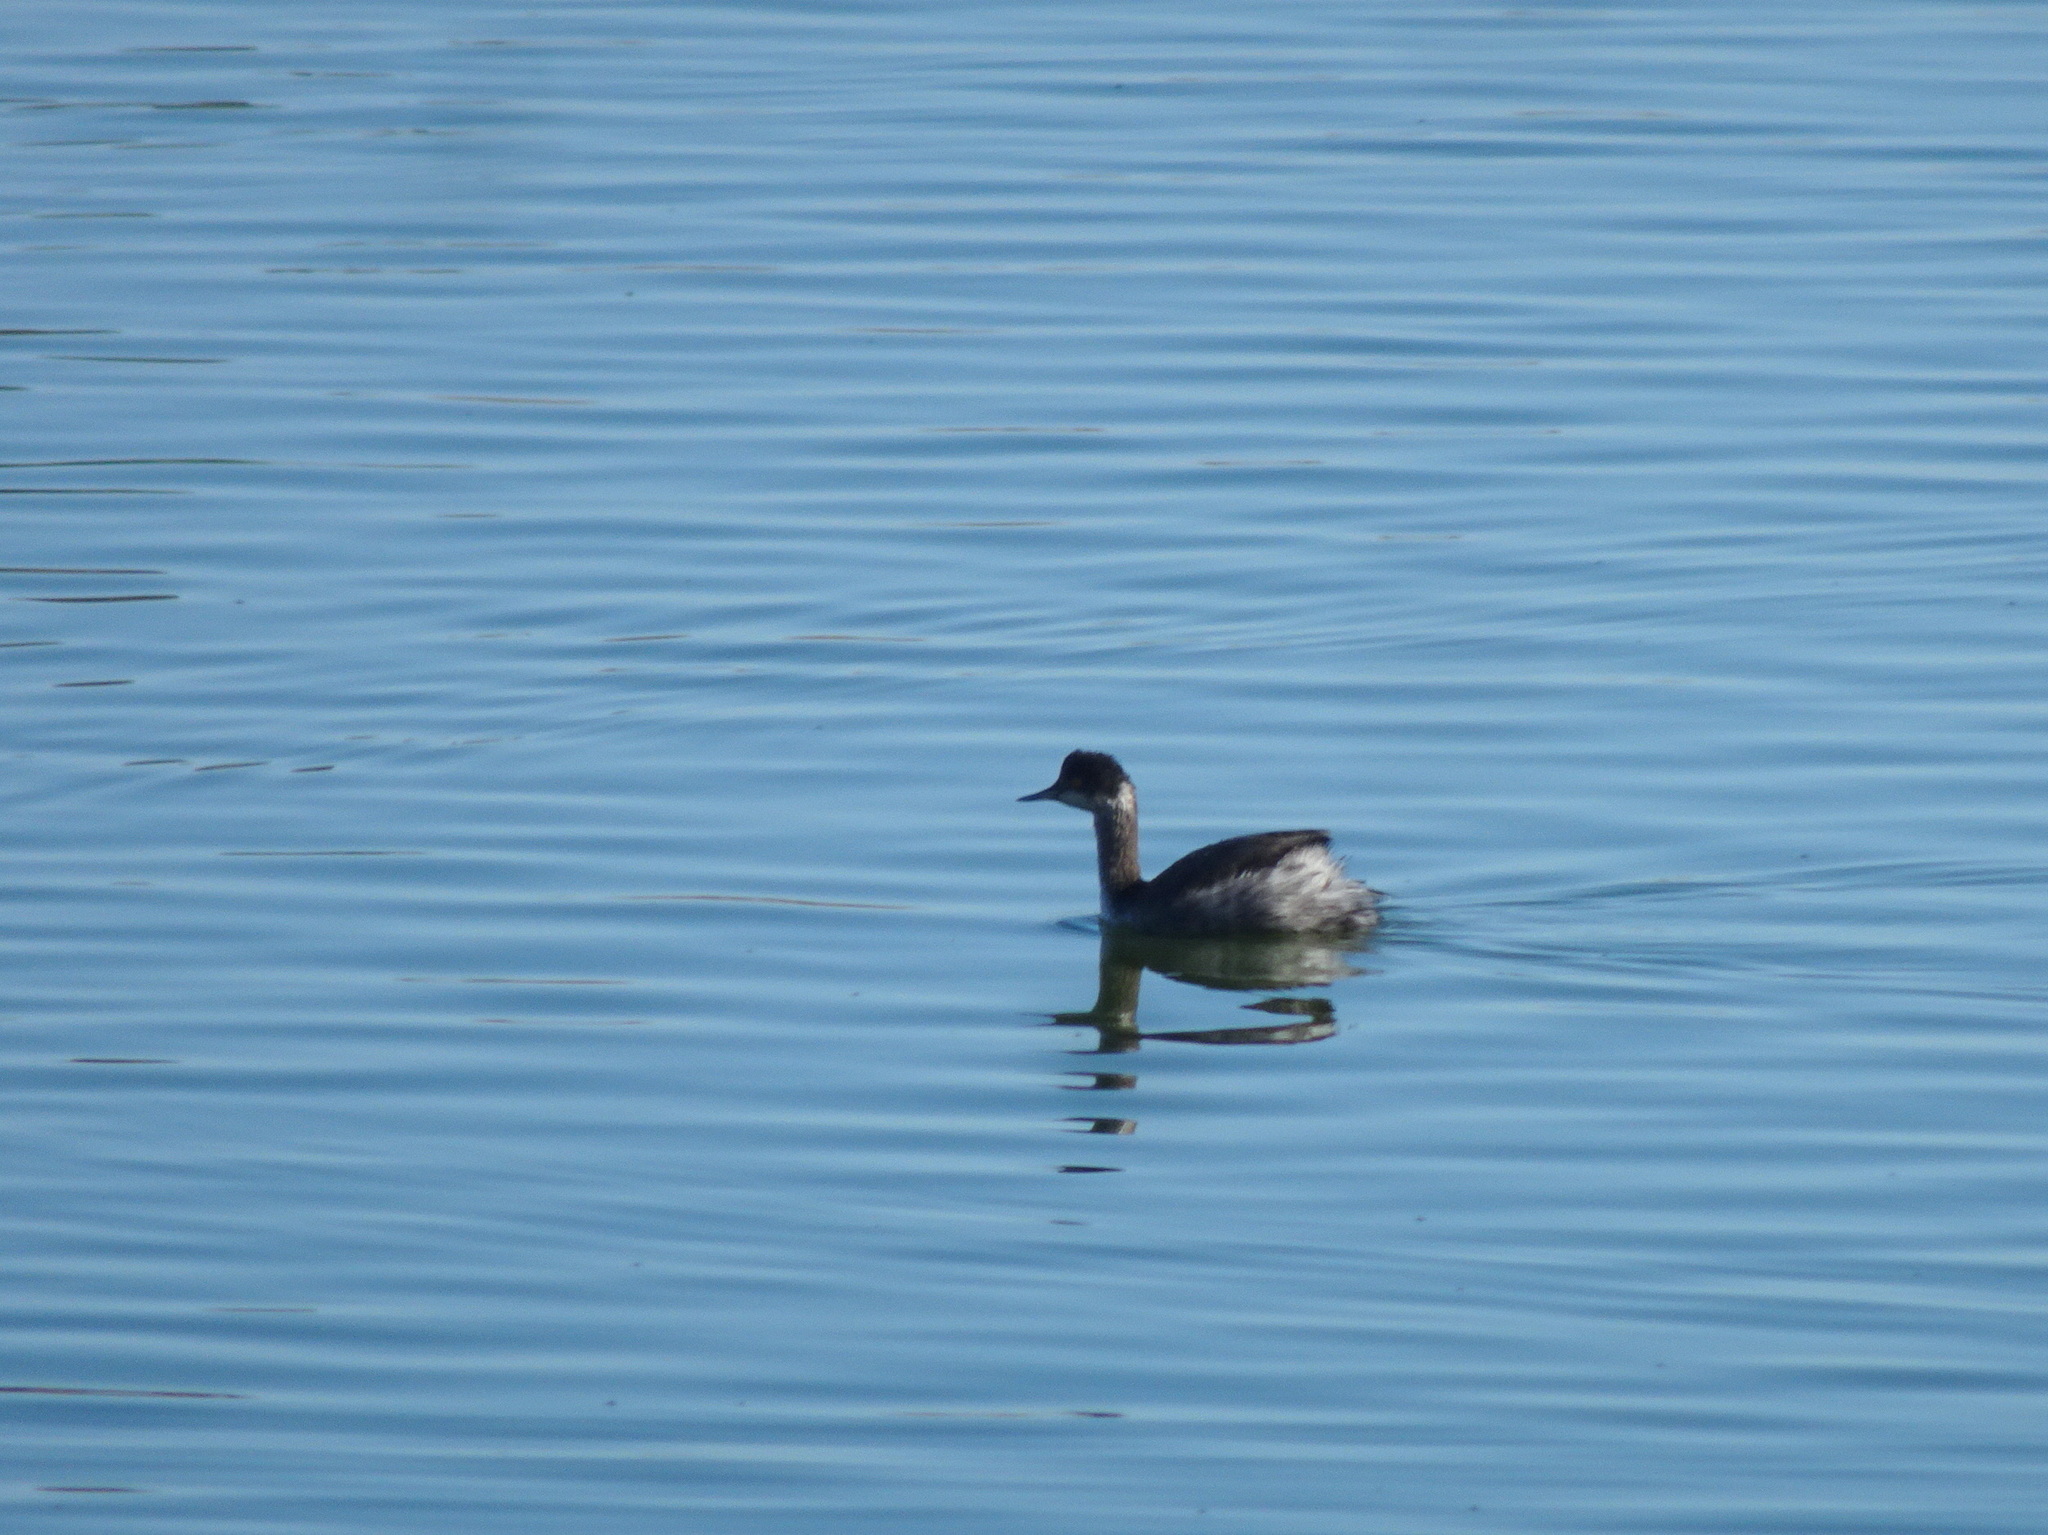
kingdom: Animalia
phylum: Chordata
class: Aves
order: Podicipediformes
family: Podicipedidae
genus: Podiceps
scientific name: Podiceps nigricollis
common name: Black-necked grebe
